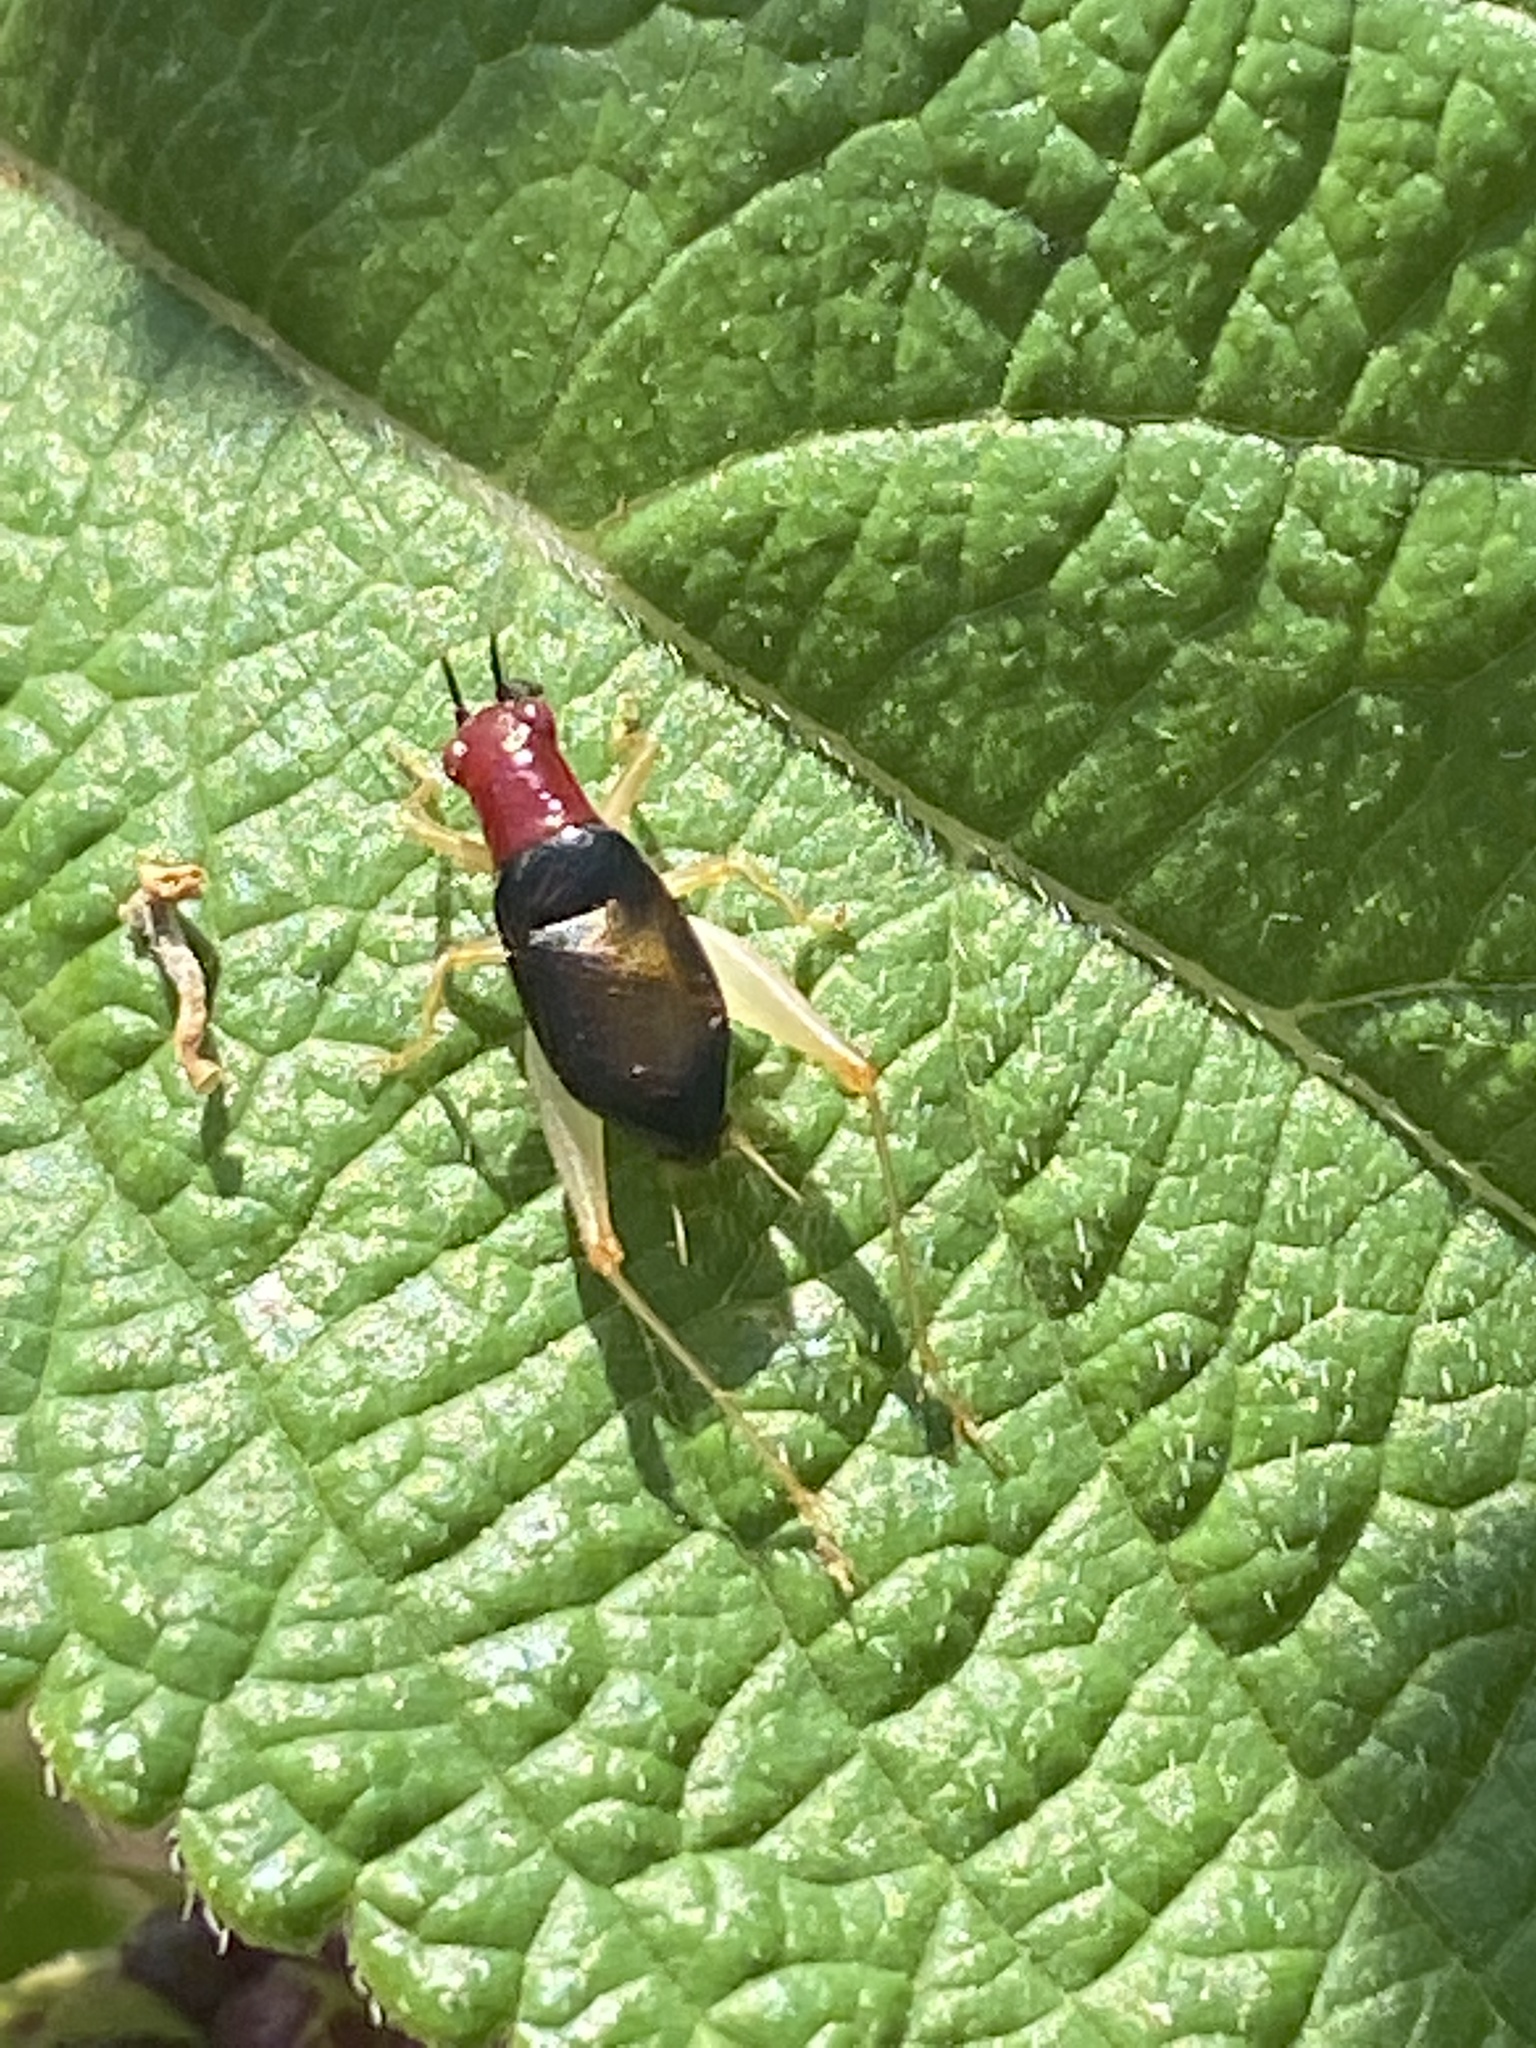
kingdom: Animalia
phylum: Arthropoda
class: Insecta
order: Orthoptera
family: Trigonidiidae
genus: Phyllopalpus
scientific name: Phyllopalpus pulchellus
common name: Handsome trig
